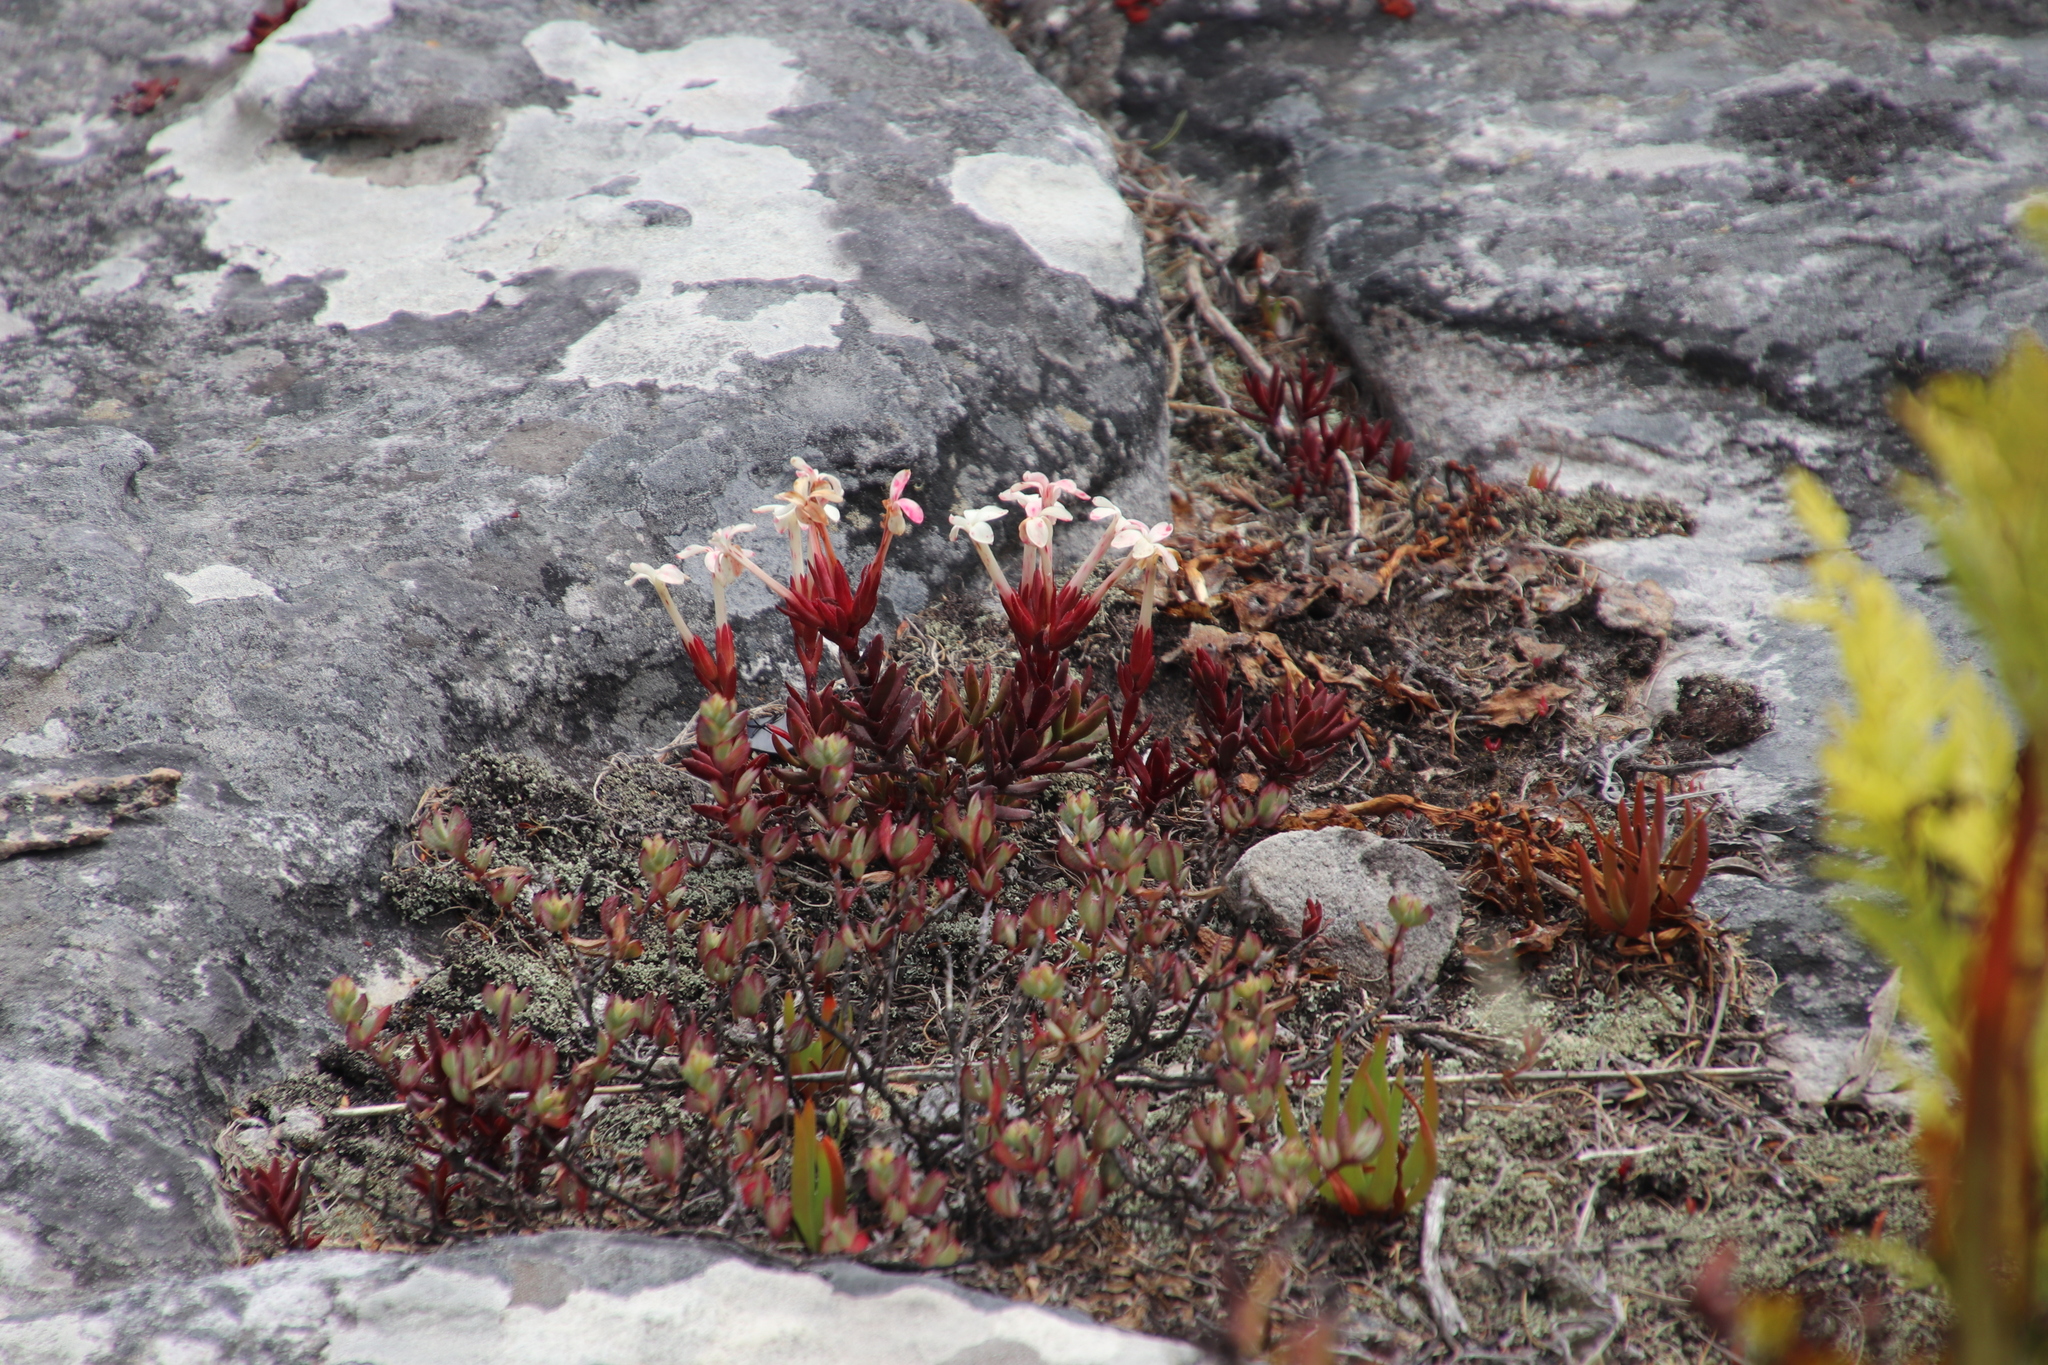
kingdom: Plantae
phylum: Tracheophyta
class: Magnoliopsida
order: Saxifragales
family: Crassulaceae
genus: Crassula
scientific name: Crassula obtusa
